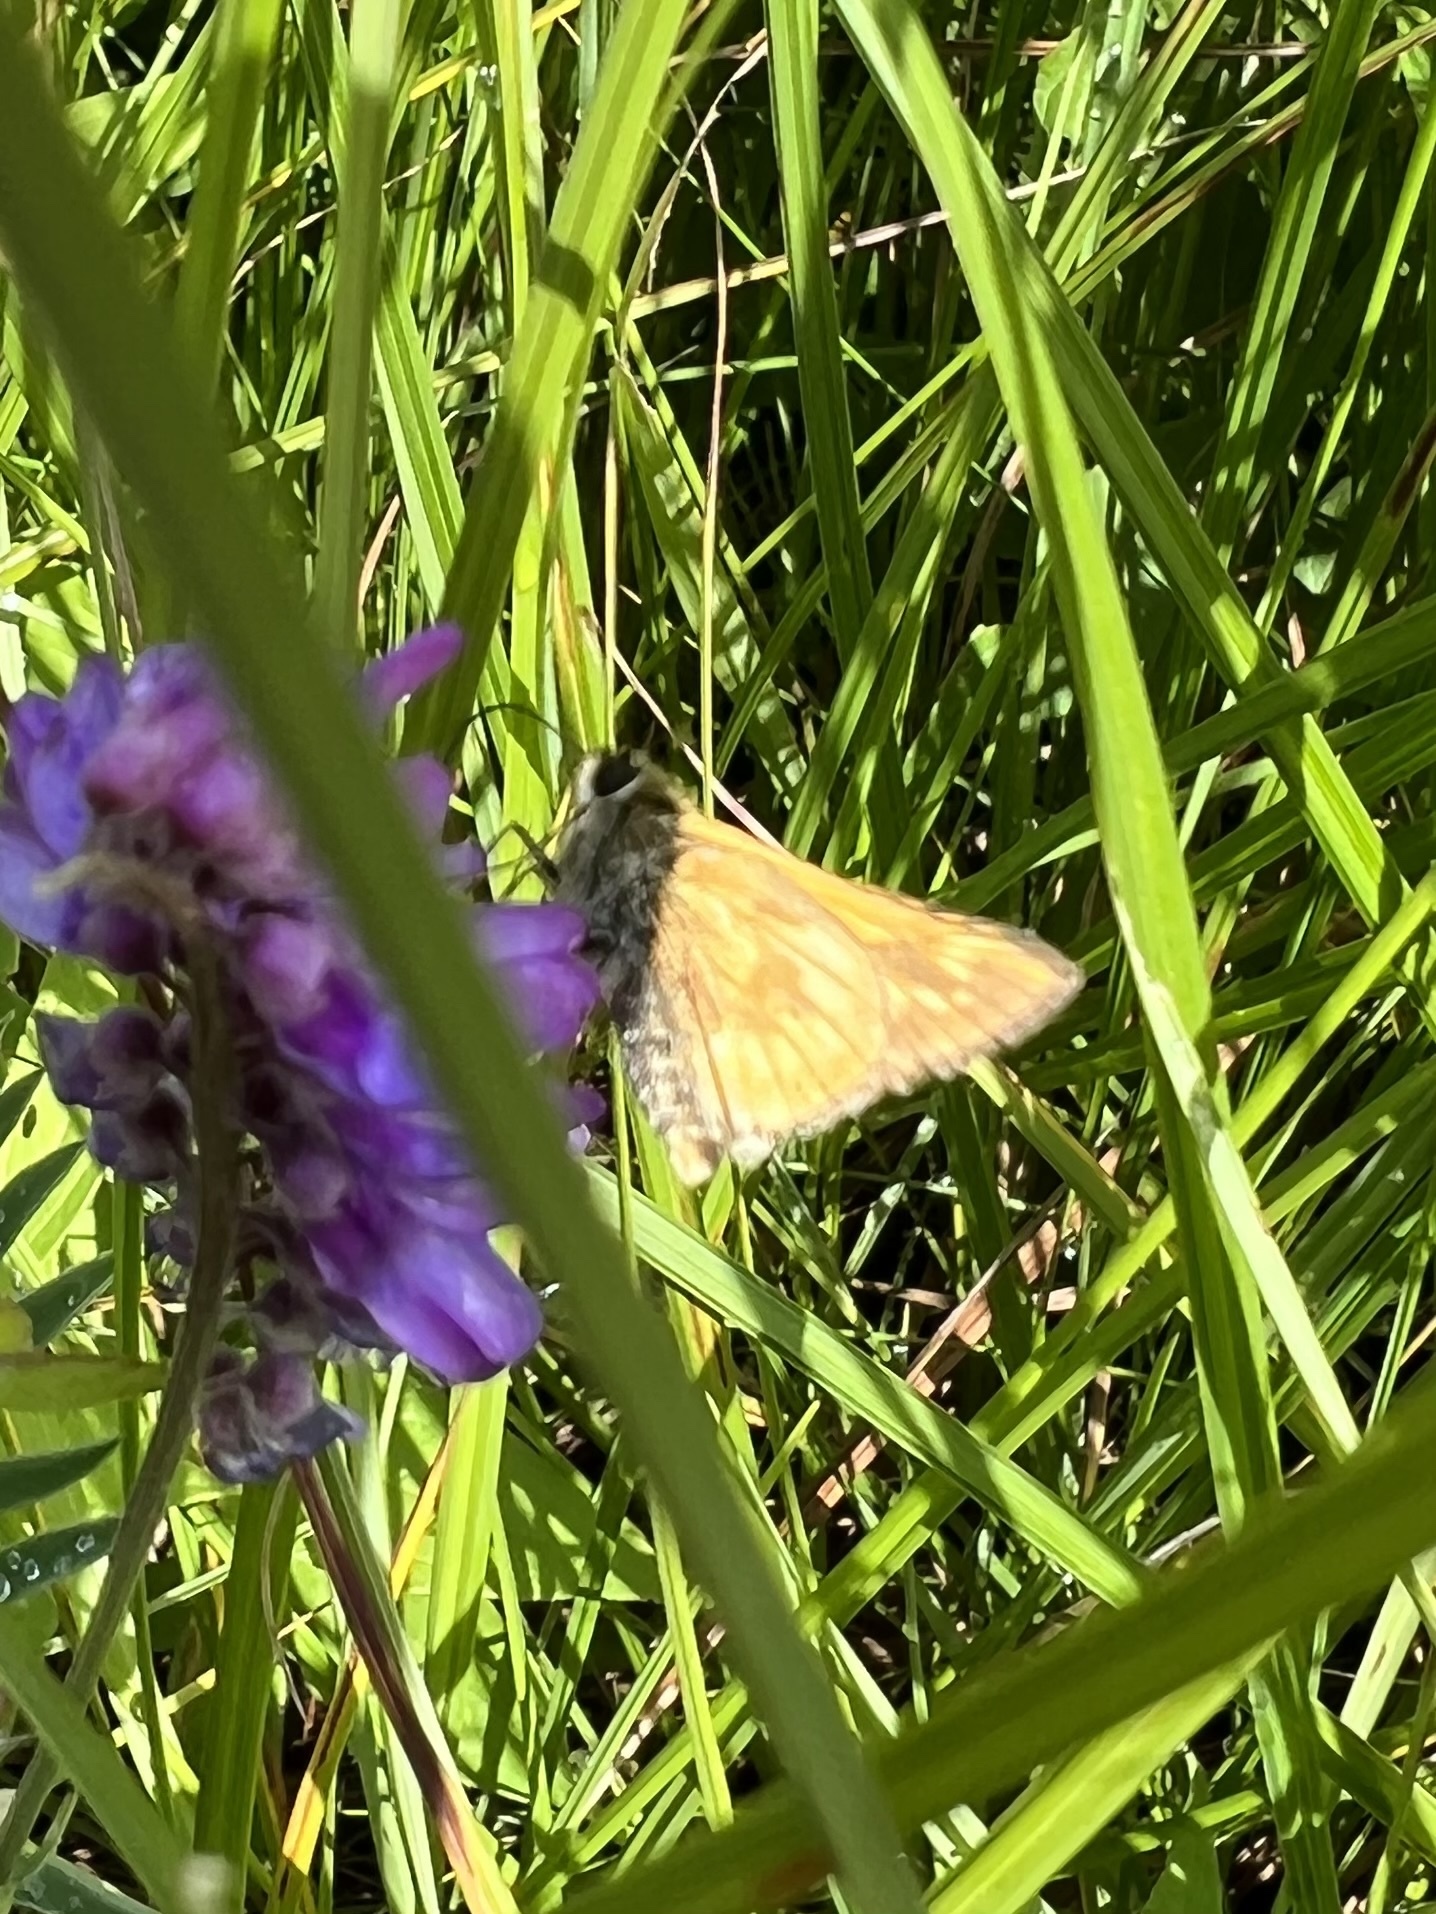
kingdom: Animalia
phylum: Arthropoda
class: Insecta
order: Lepidoptera
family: Hesperiidae
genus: Polites
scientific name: Polites mystic
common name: Long dash
